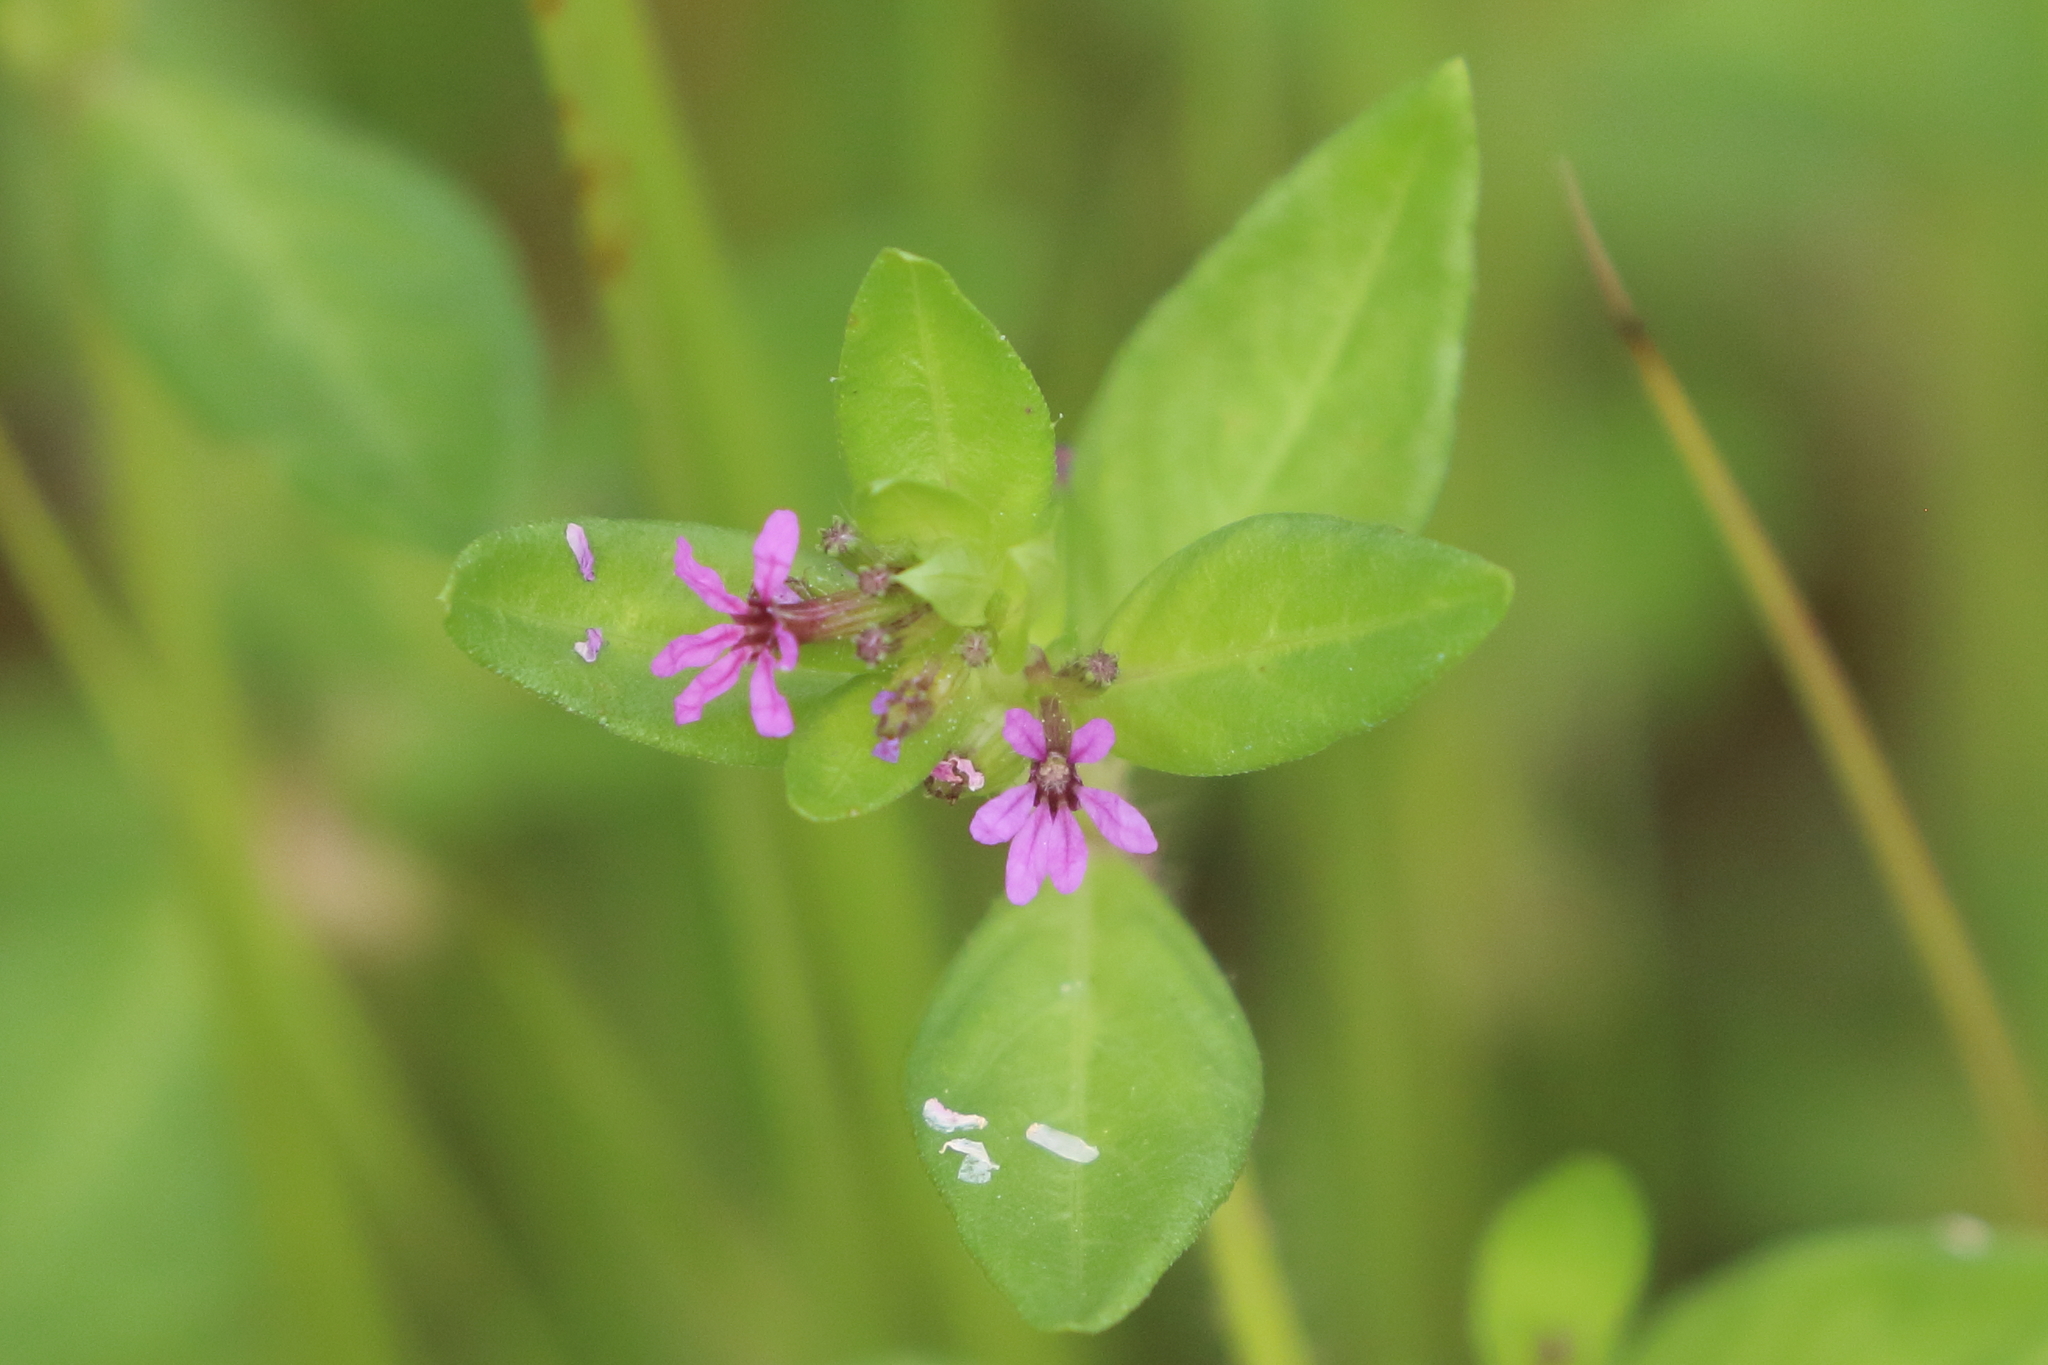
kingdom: Plantae
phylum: Tracheophyta
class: Magnoliopsida
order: Myrtales
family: Lythraceae
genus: Cuphea
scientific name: Cuphea carthagenensis
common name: Colombian waxweed
